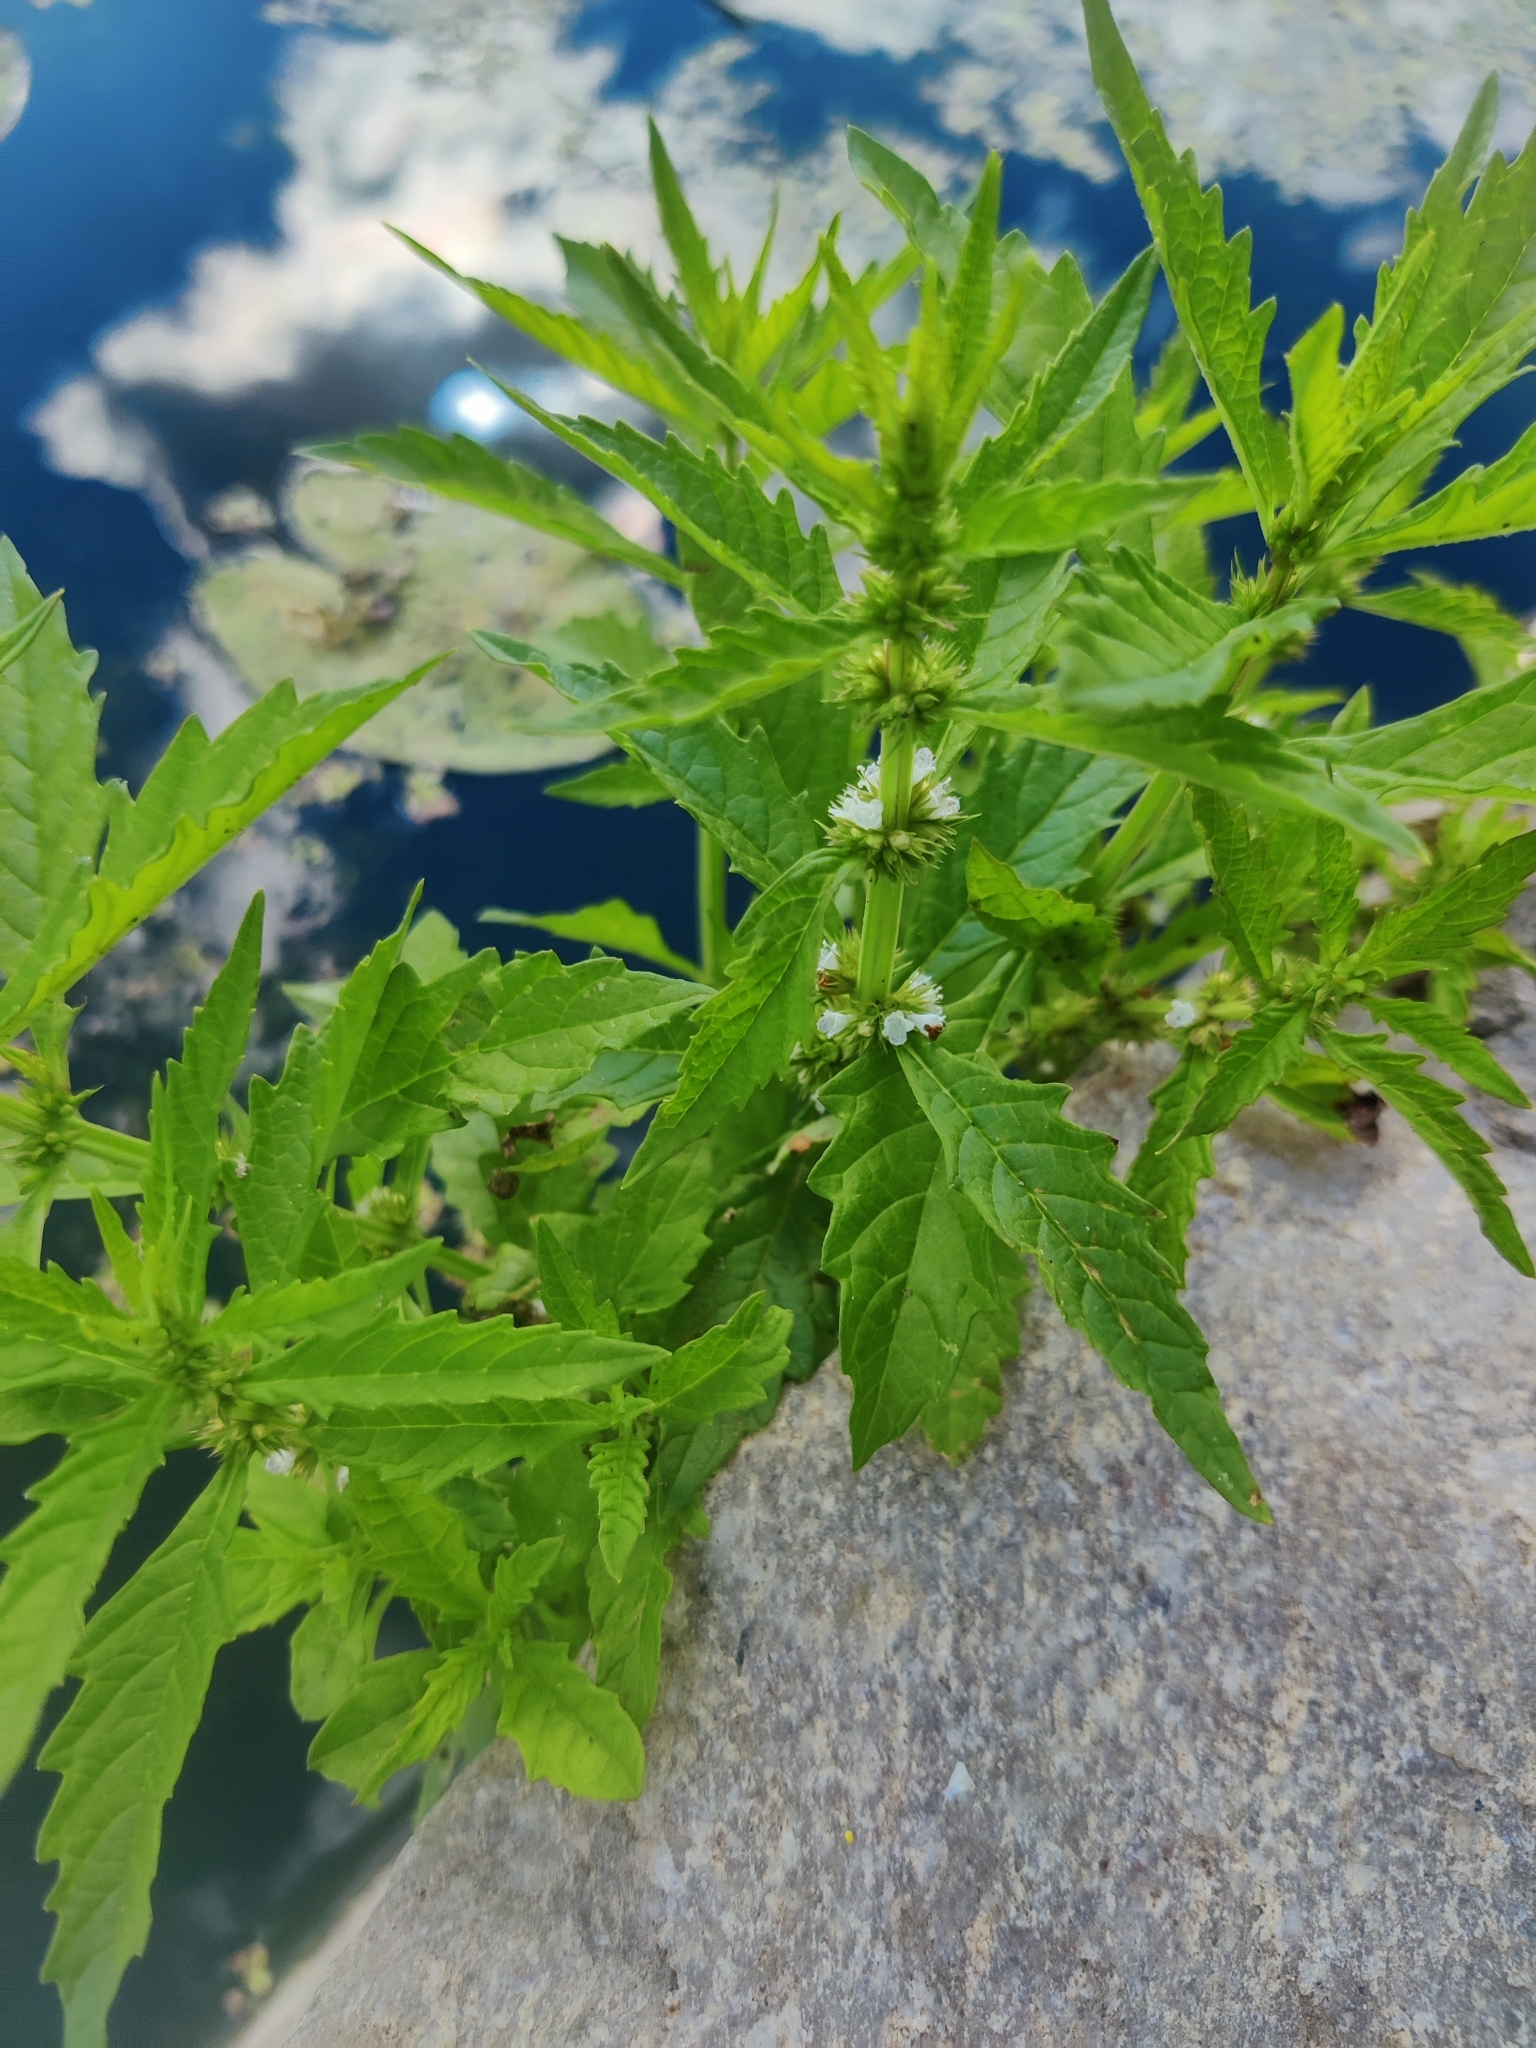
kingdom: Plantae
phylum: Tracheophyta
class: Magnoliopsida
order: Lamiales
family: Lamiaceae
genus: Lycopus
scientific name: Lycopus europaeus
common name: European bugleweed
